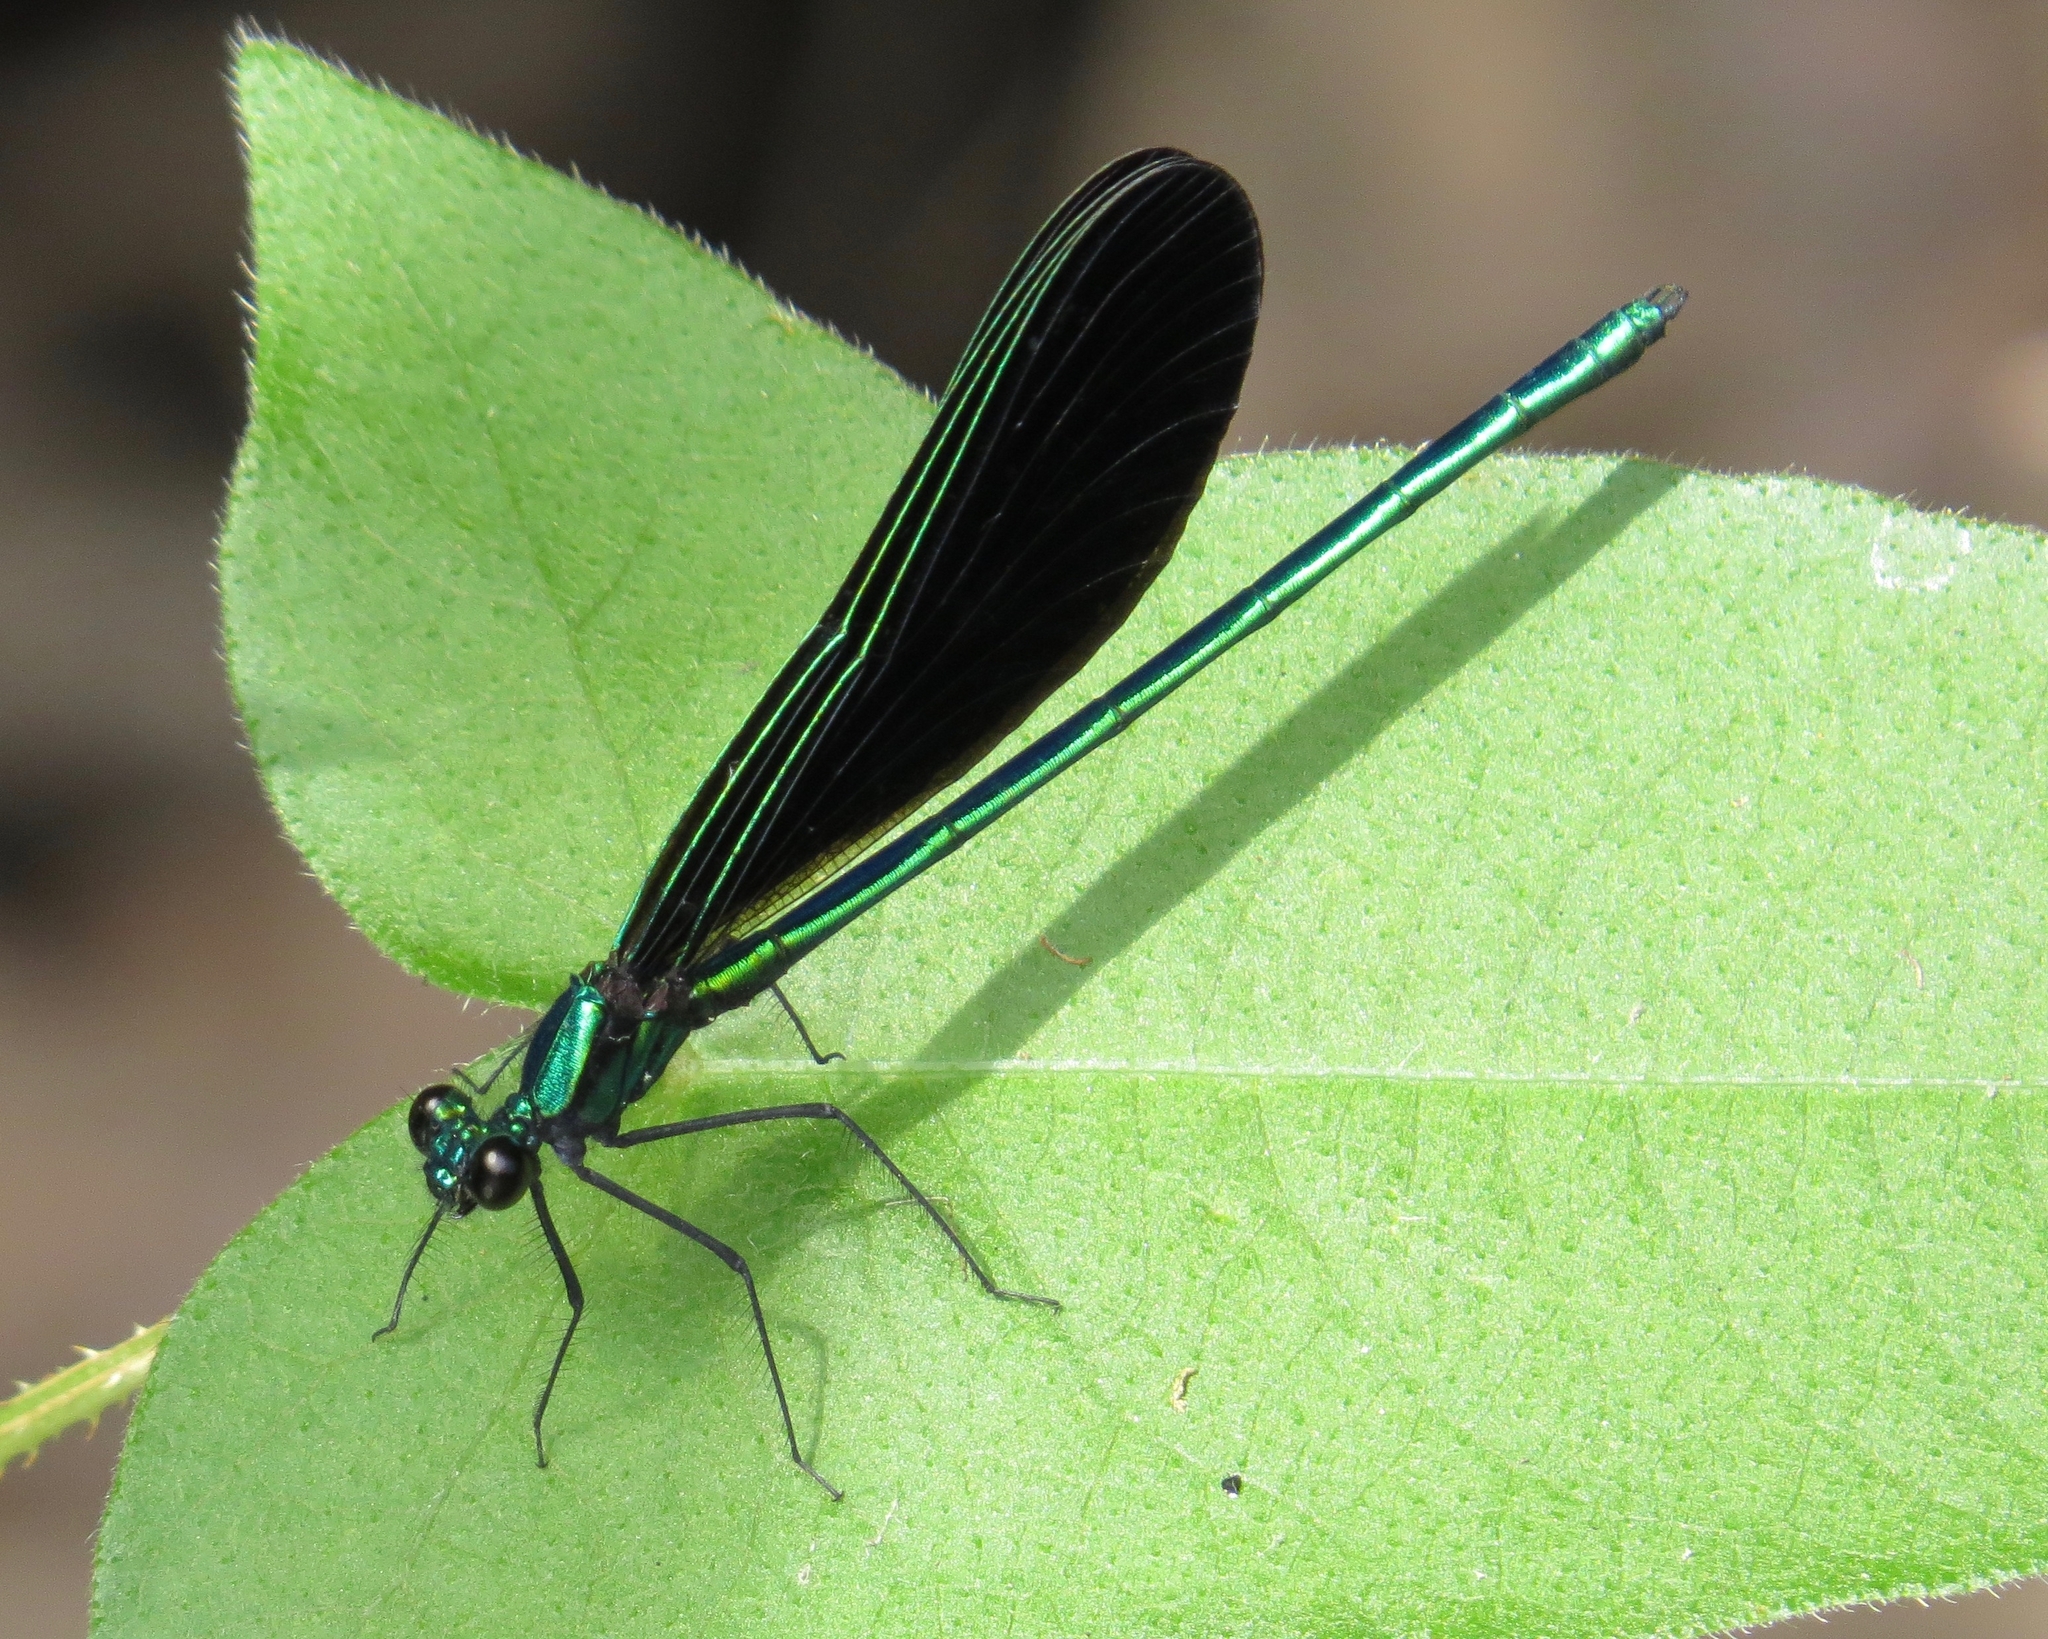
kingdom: Animalia
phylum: Arthropoda
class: Insecta
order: Odonata
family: Calopterygidae
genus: Calopteryx
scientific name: Calopteryx maculata
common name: Ebony jewelwing
